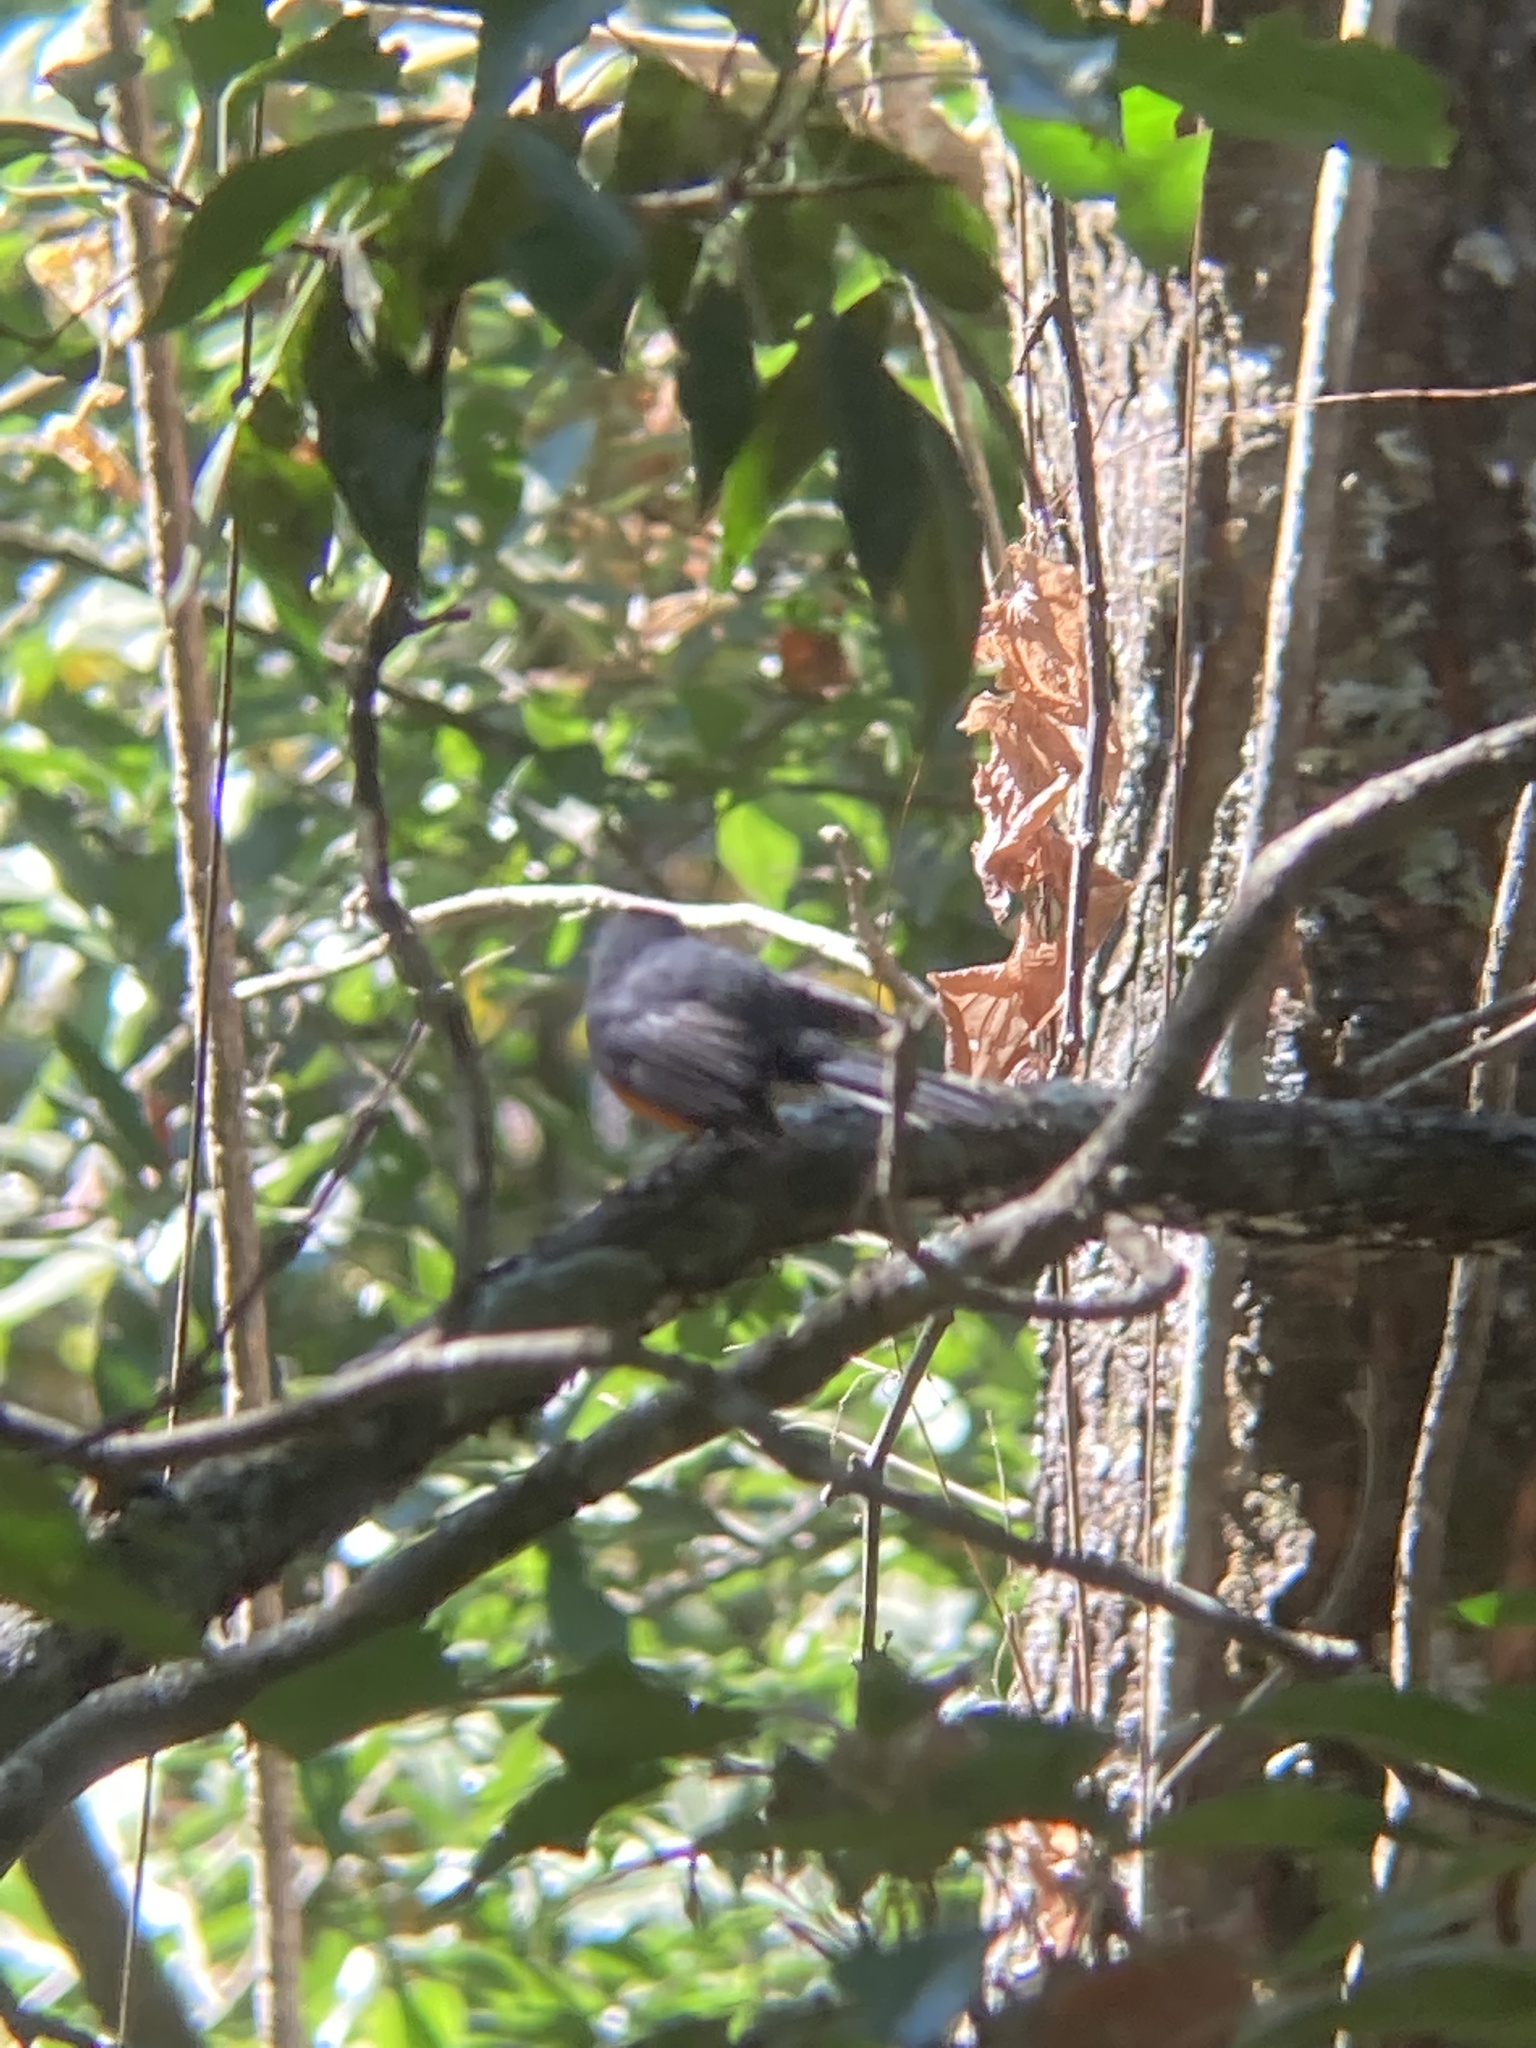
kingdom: Animalia
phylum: Chordata
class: Aves
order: Passeriformes
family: Parulidae
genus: Myioborus
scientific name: Myioborus miniatus
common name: Slate-throated redstart
